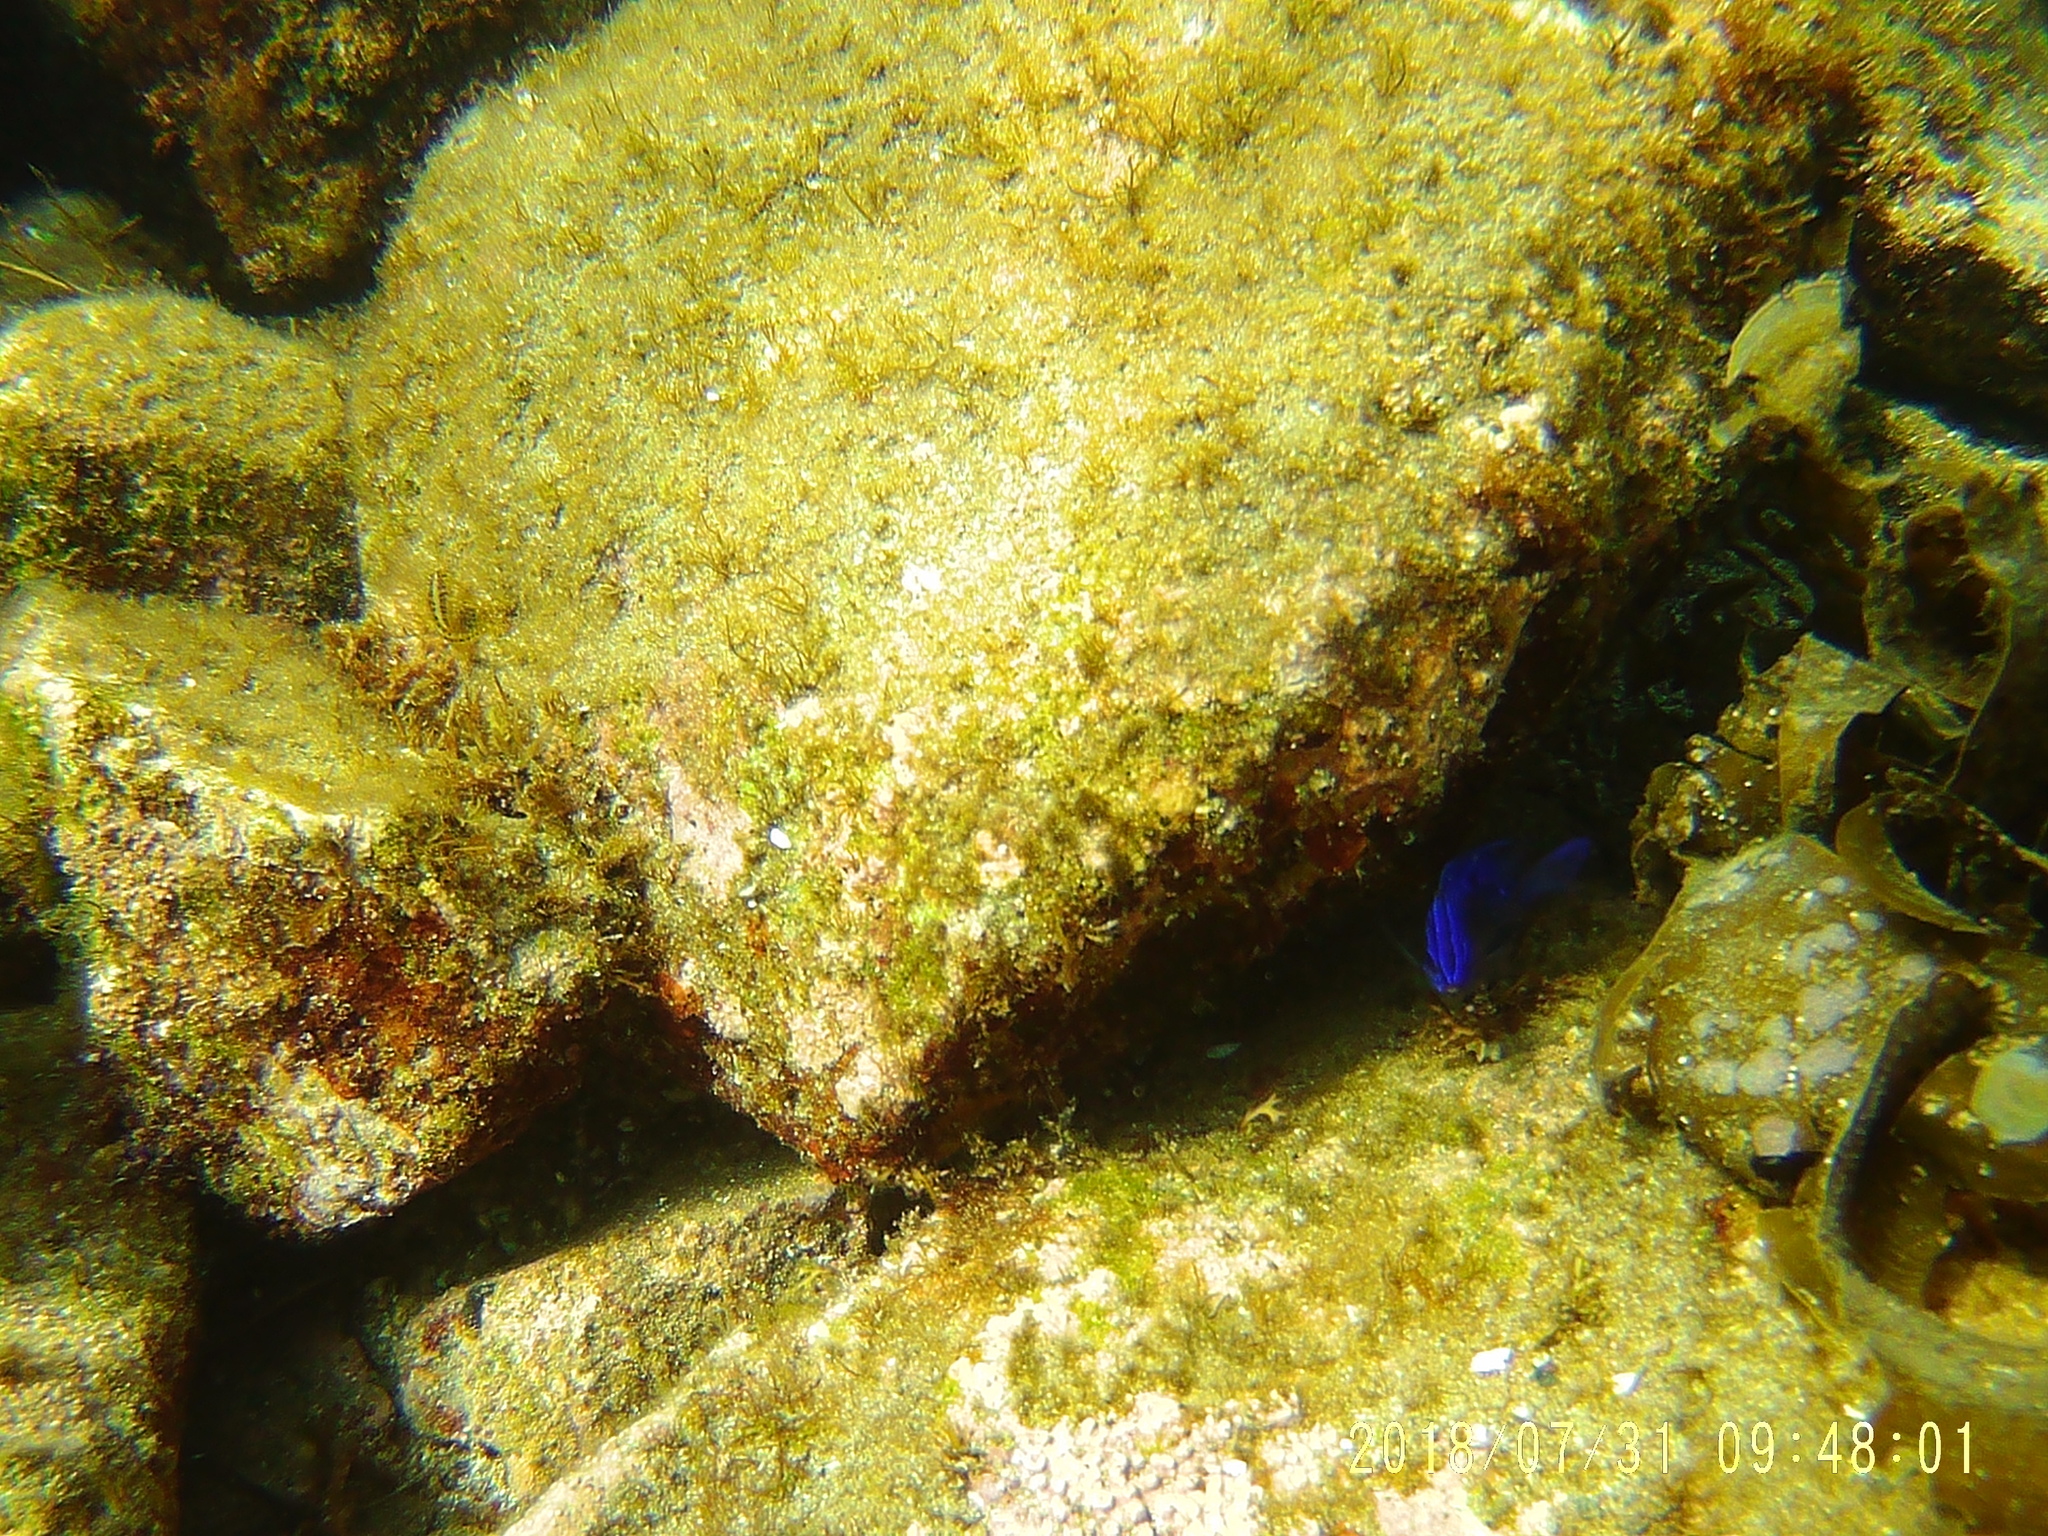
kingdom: Animalia
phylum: Chordata
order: Perciformes
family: Pomacentridae
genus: Stegastes
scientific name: Stegastes rectifraenum
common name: Cortez damselfish
